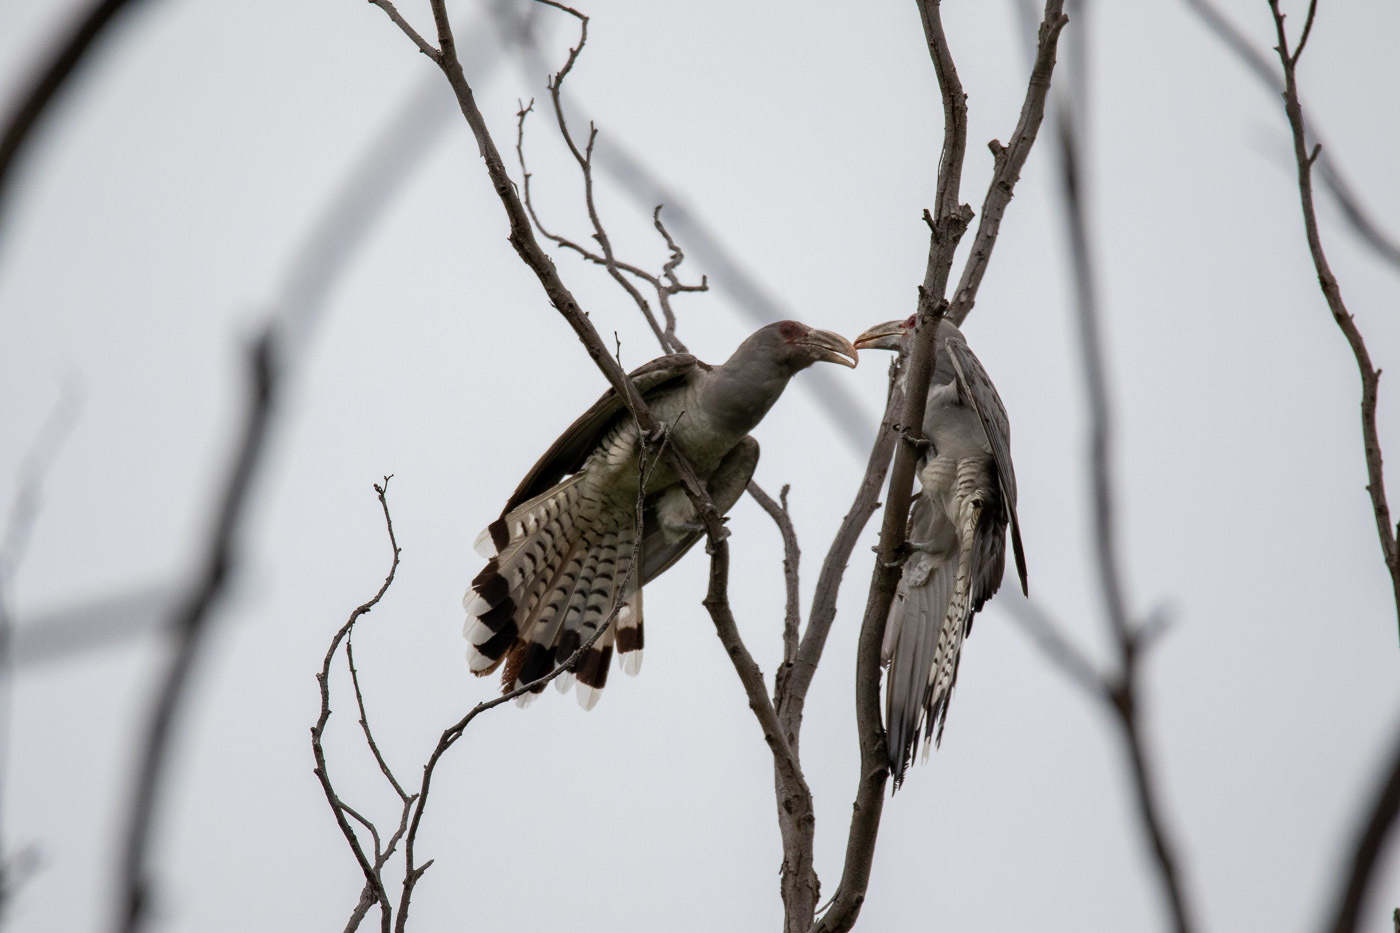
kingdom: Animalia
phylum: Chordata
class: Aves
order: Cuculiformes
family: Cuculidae
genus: Scythrops
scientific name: Scythrops novaehollandiae
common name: Channel-billed cuckoo
